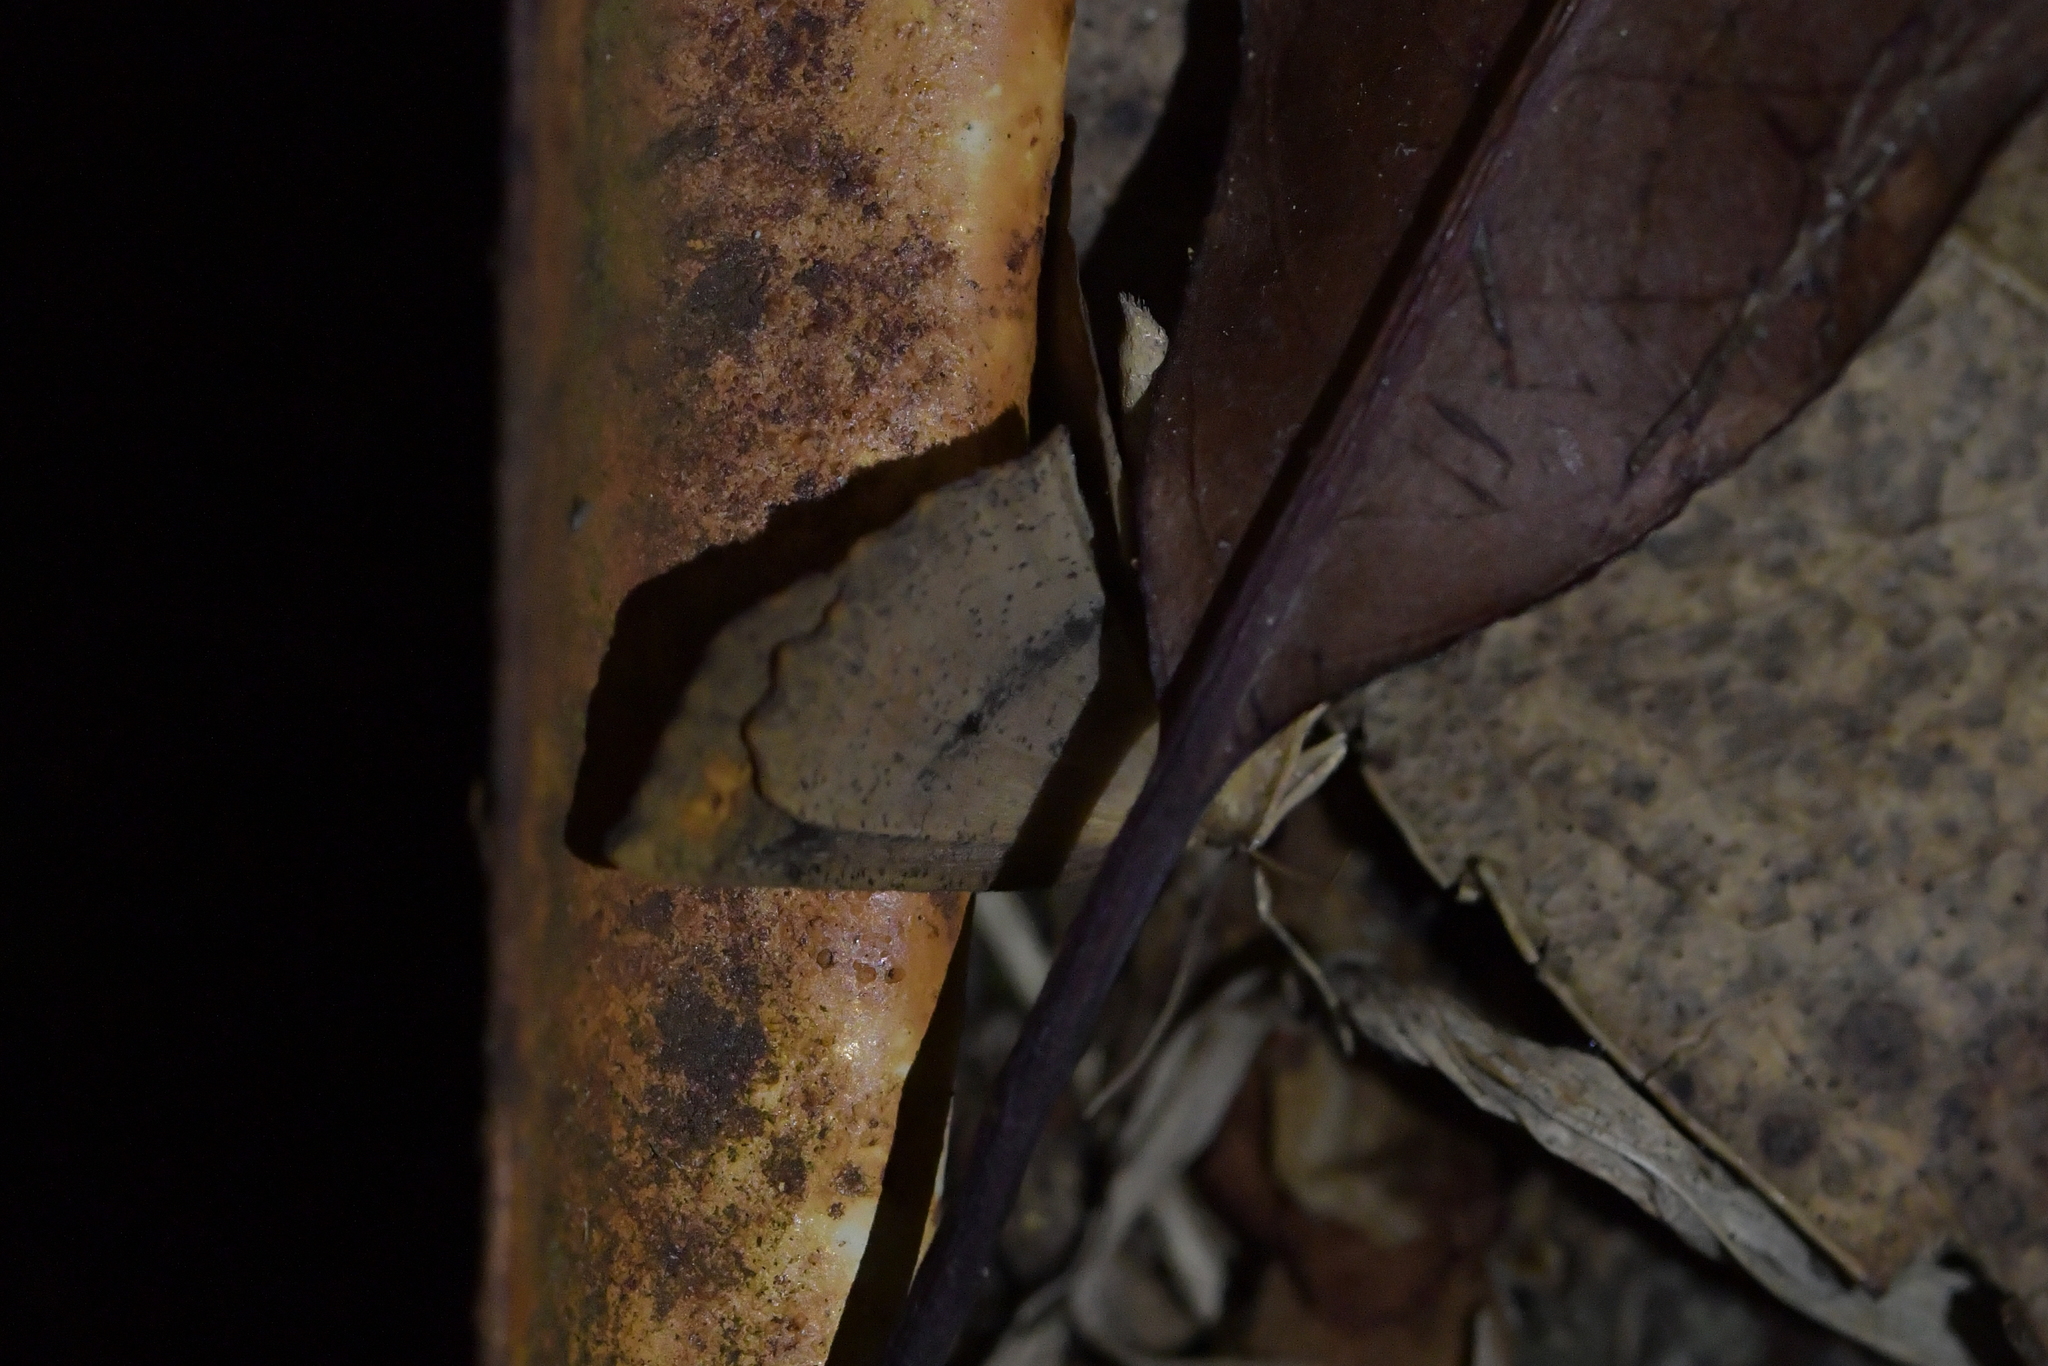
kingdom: Animalia
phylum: Arthropoda
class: Insecta
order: Lepidoptera
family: Geometridae
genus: Xyridacma
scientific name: Xyridacma ustaria
